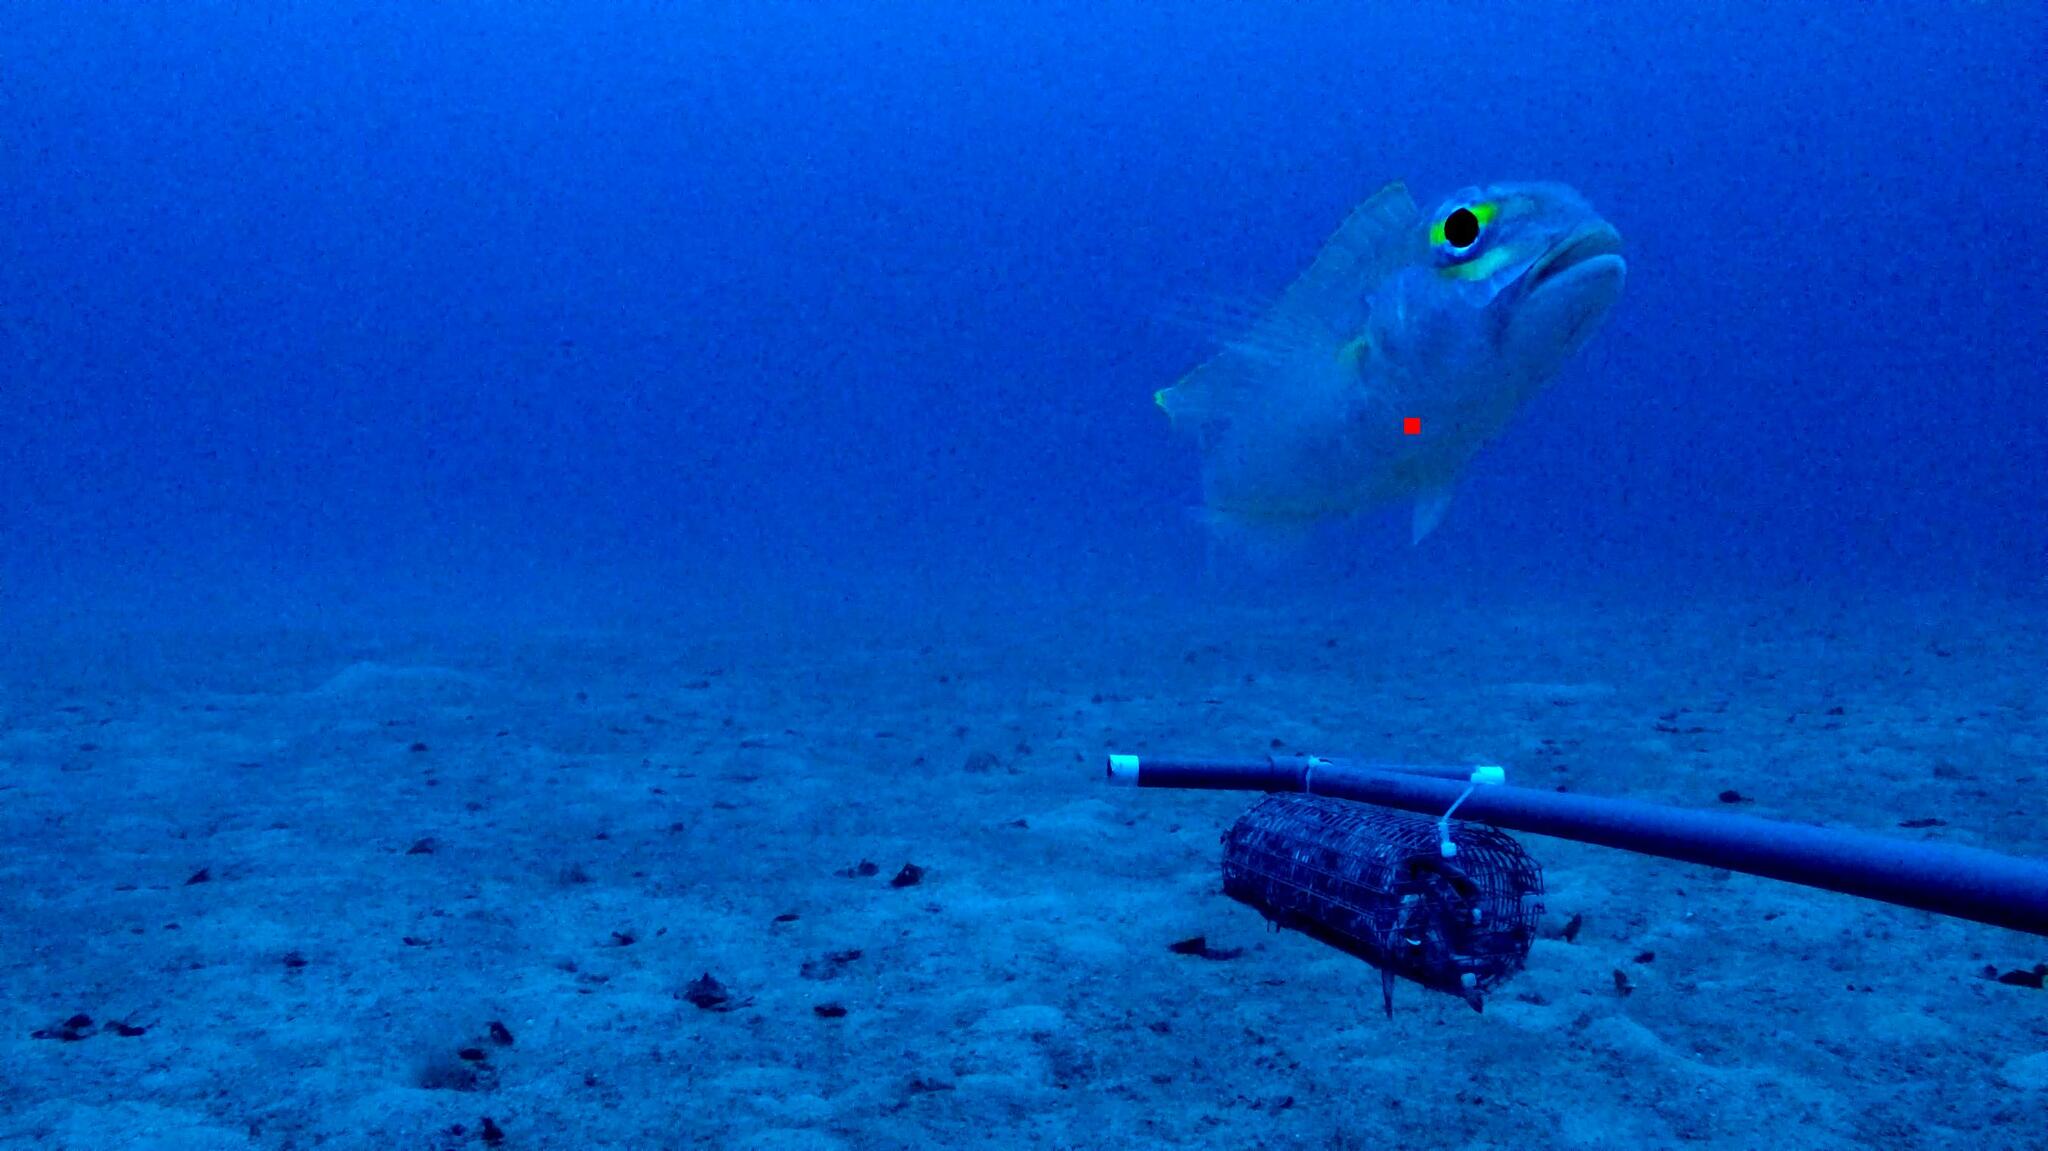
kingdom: Animalia
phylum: Chordata
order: Perciformes
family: Nemipteridae
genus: Nemipterus
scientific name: Nemipterus zysron
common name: Slender threadfin bream
